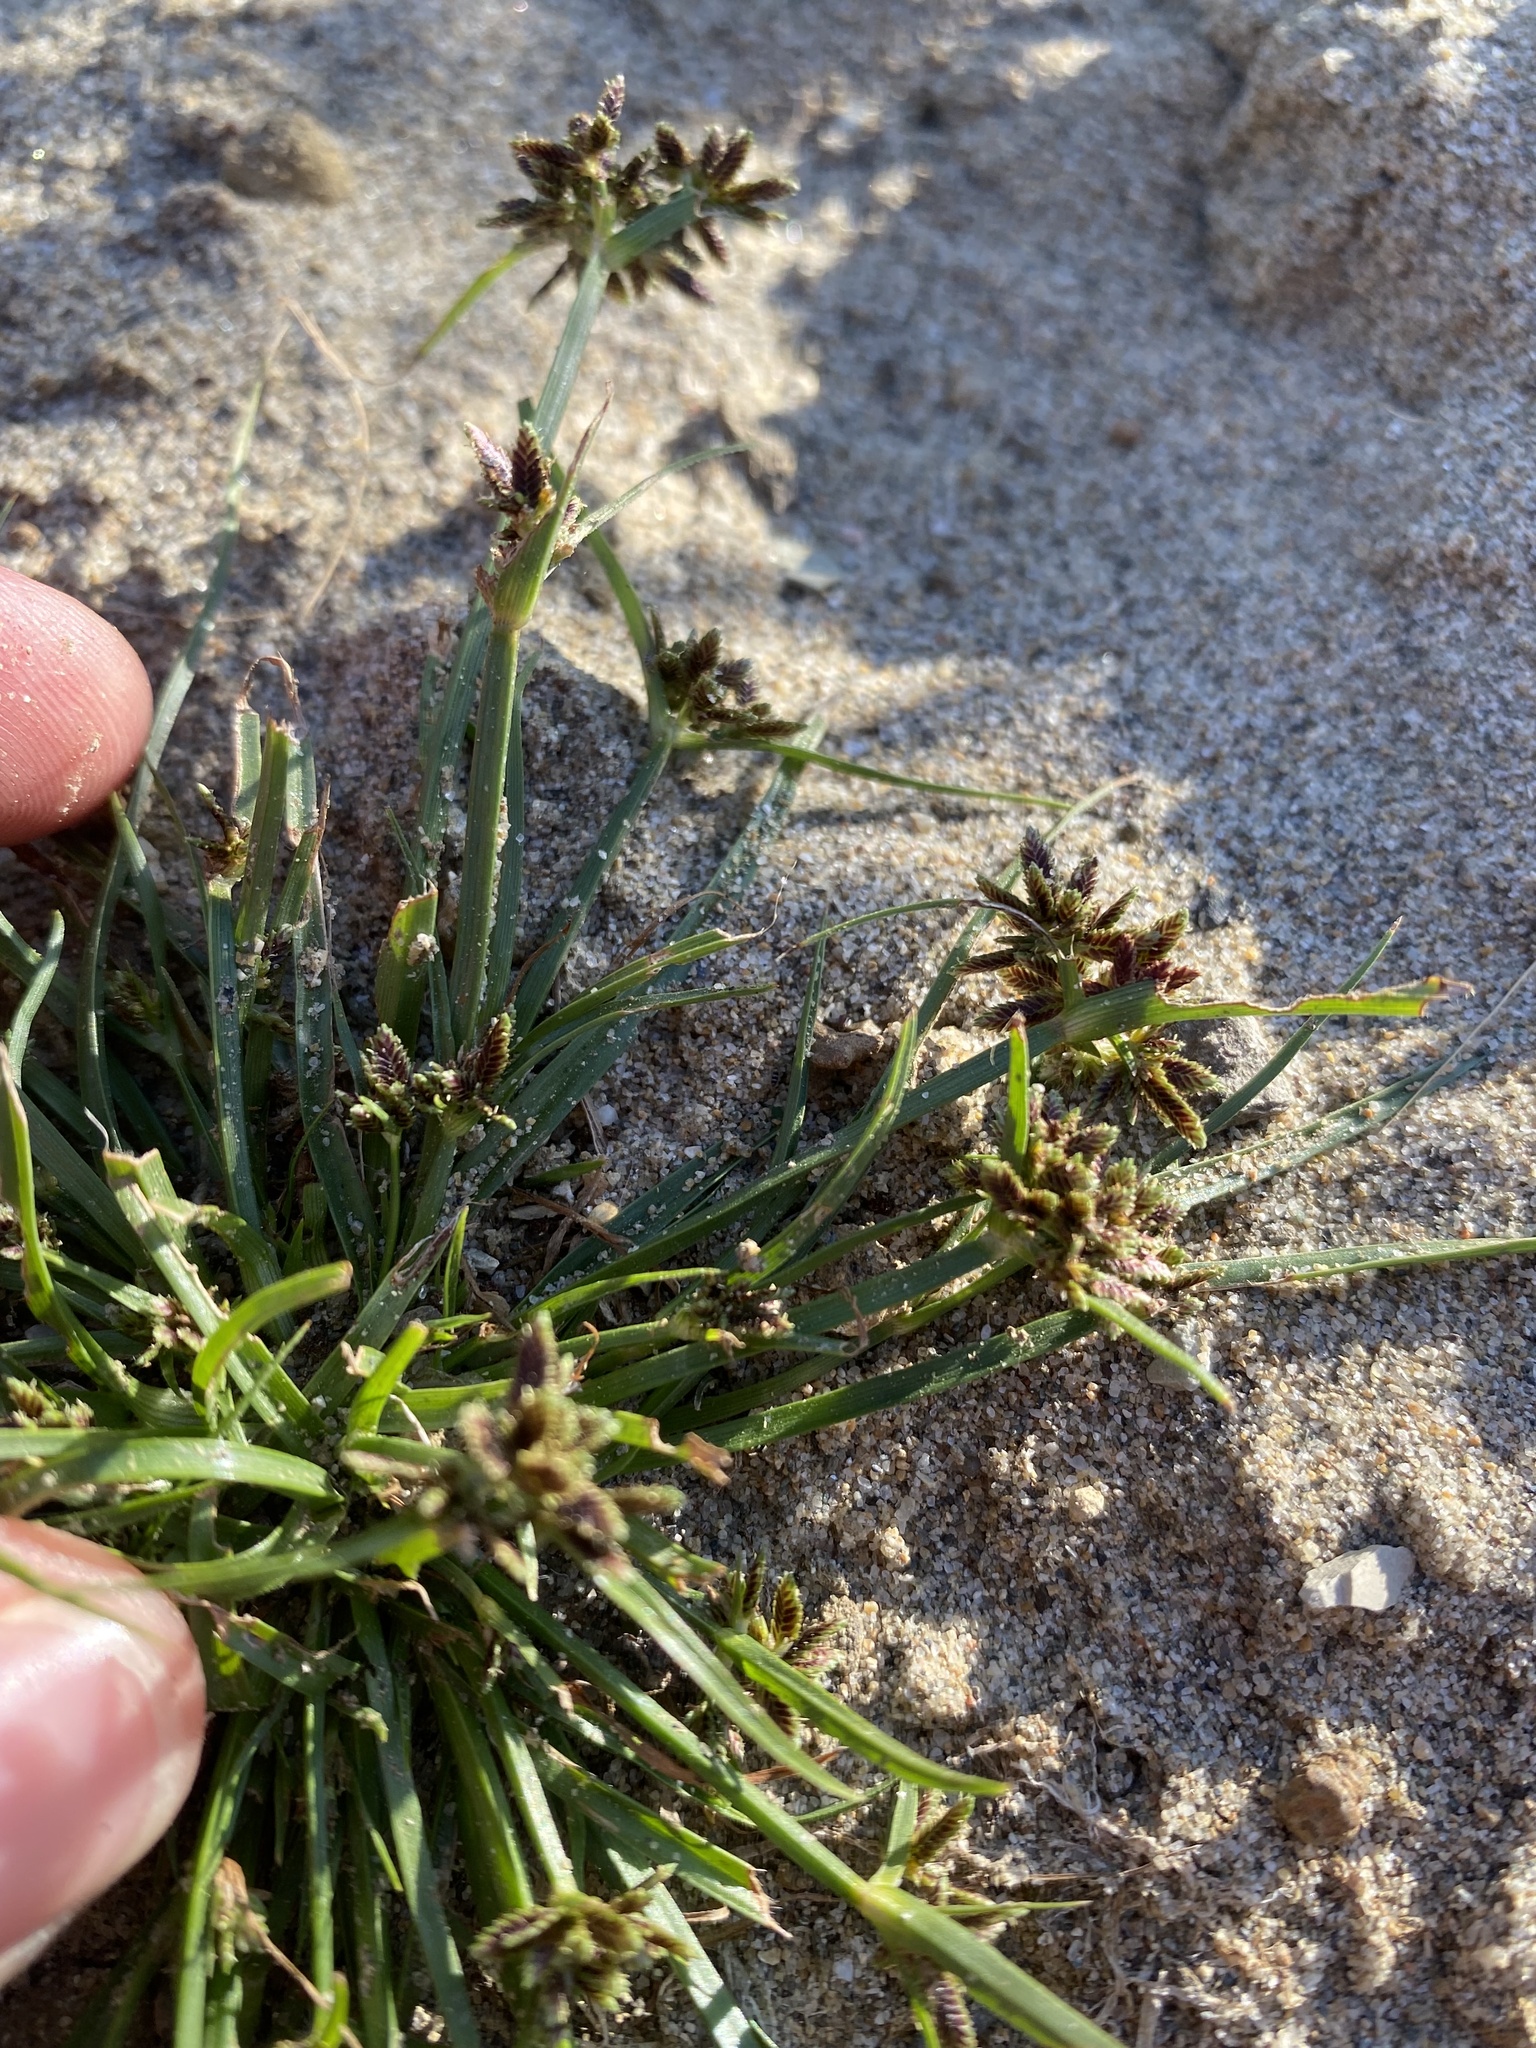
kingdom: Plantae
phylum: Tracheophyta
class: Liliopsida
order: Poales
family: Cyperaceae
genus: Cyperus
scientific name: Cyperus fuscus
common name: Brown galingale
